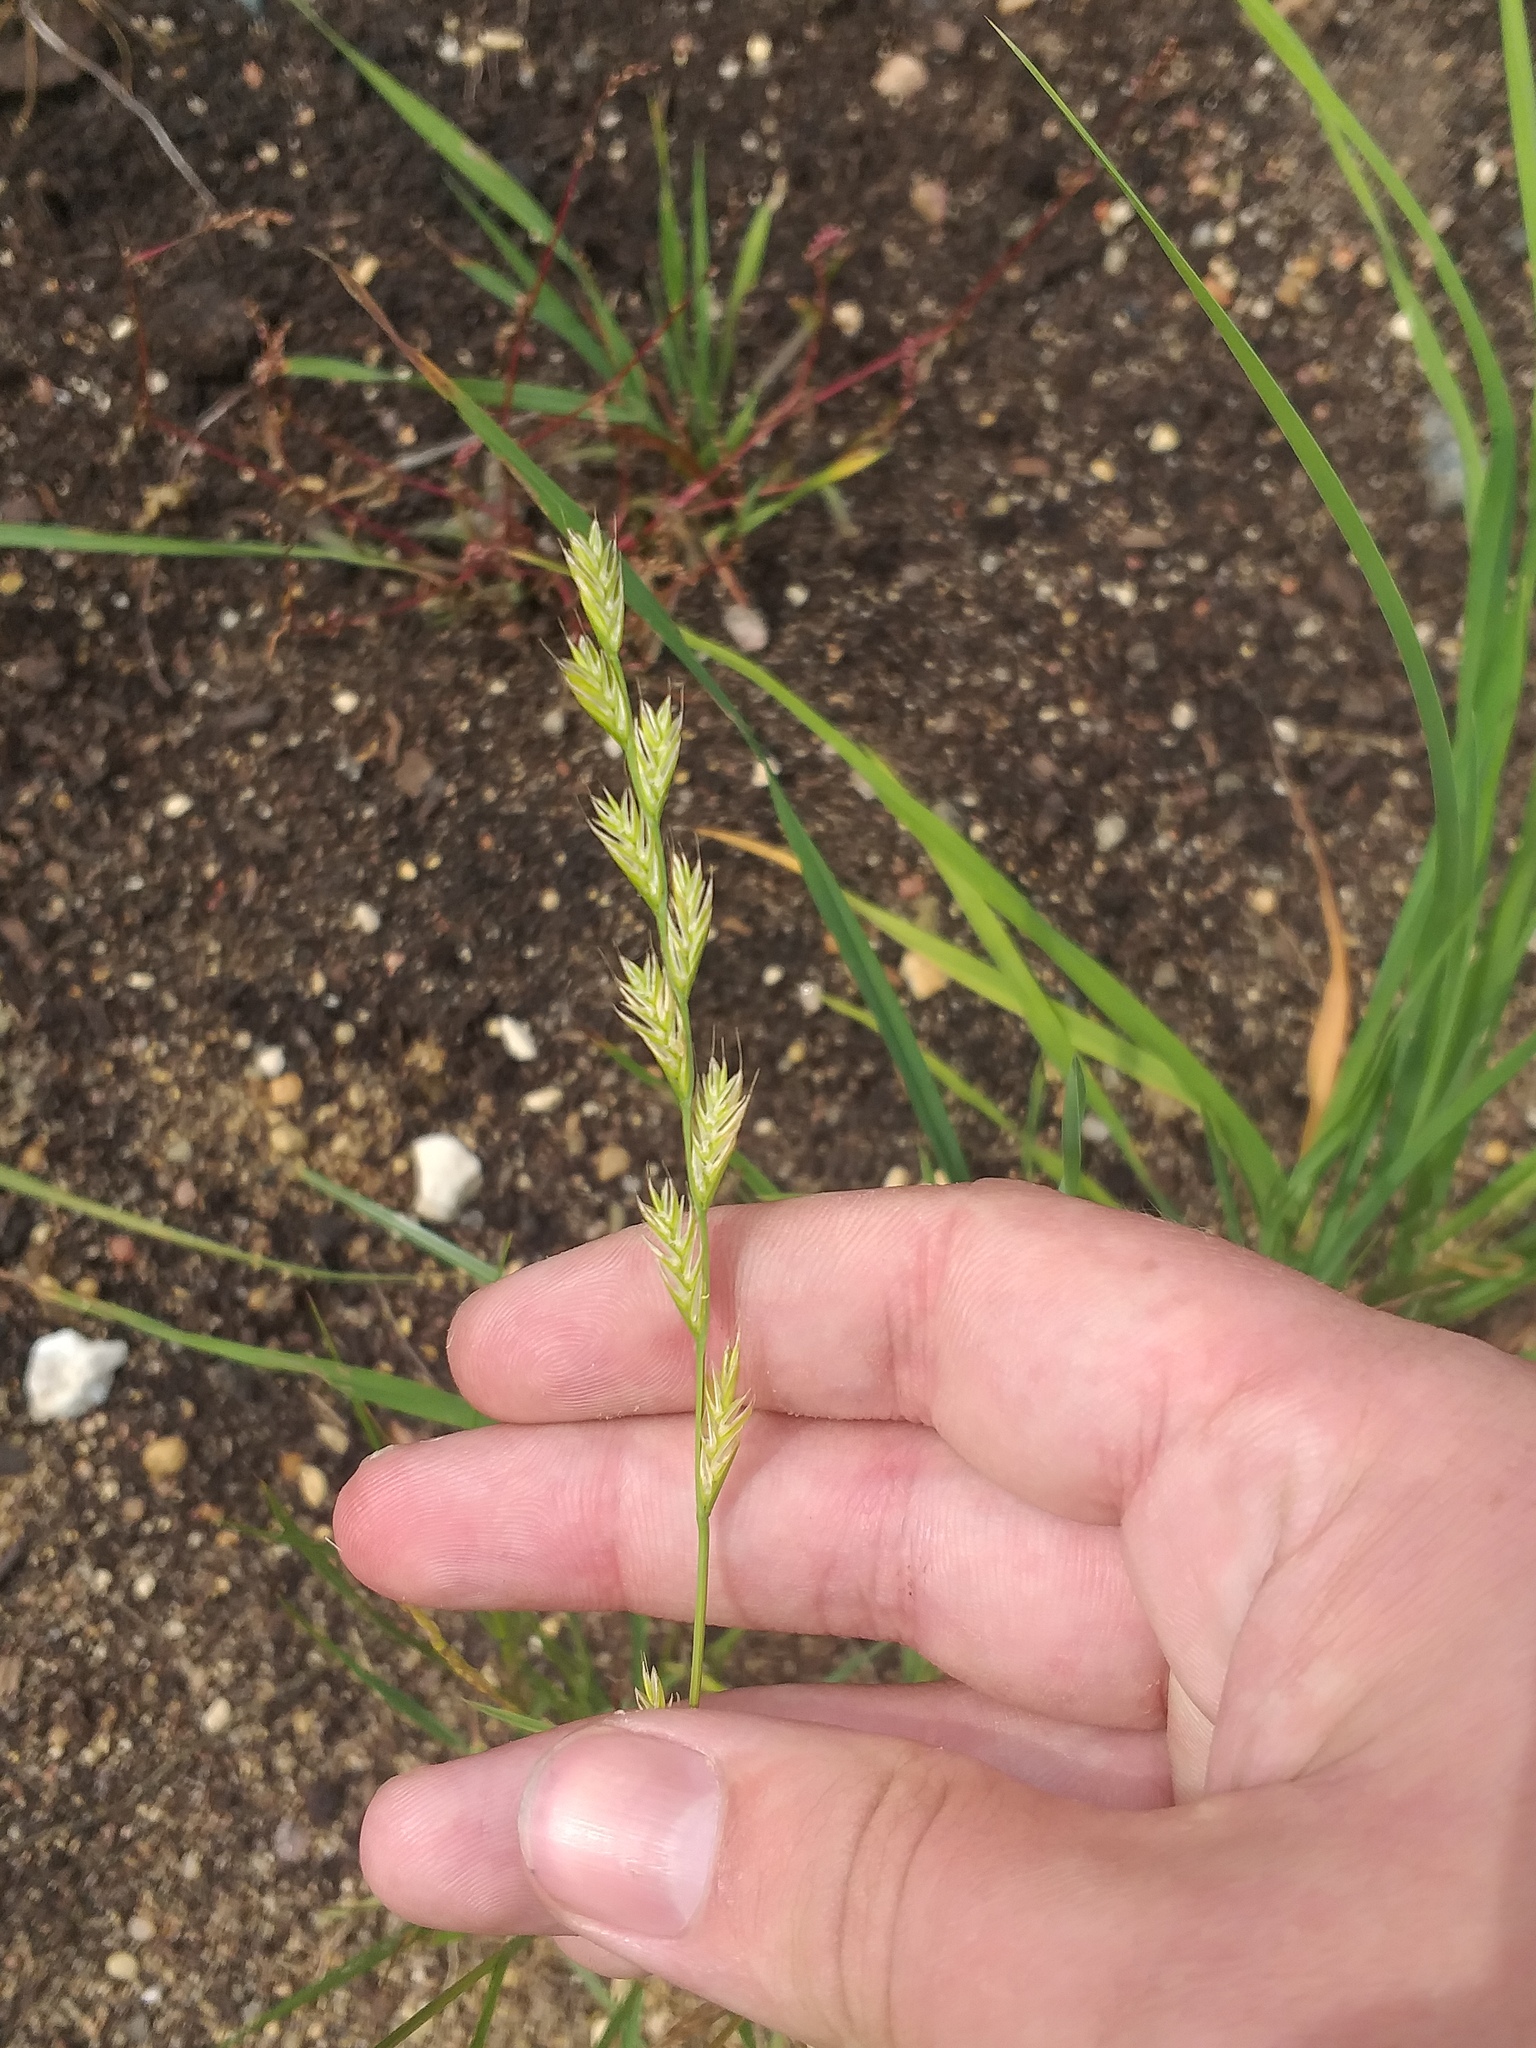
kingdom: Plantae
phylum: Tracheophyta
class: Liliopsida
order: Poales
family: Poaceae
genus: Lolium
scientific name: Lolium boucheanum
